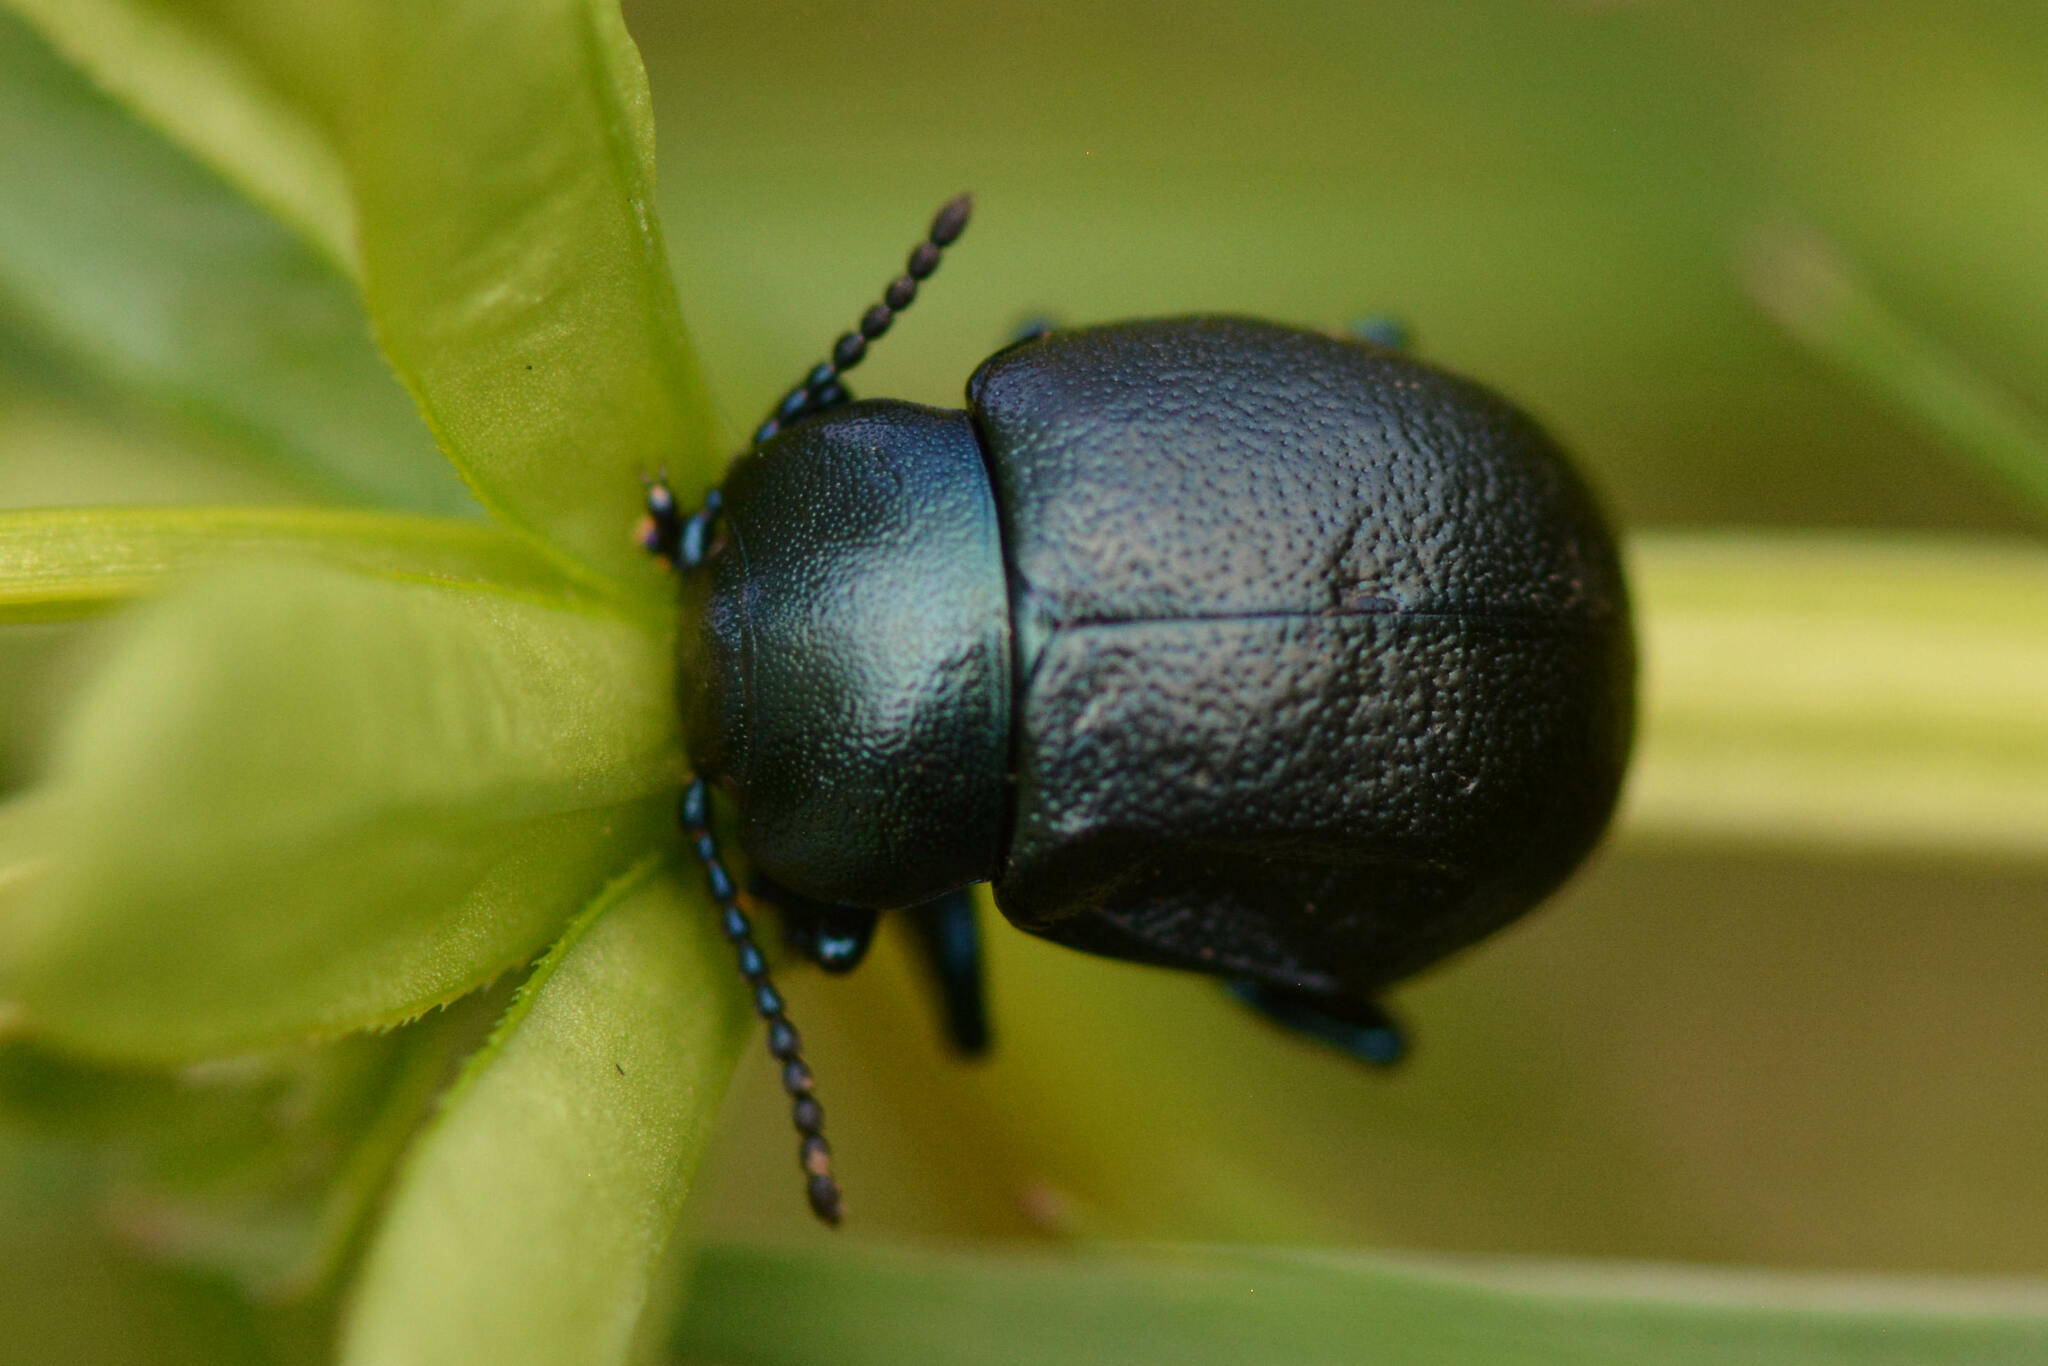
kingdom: Animalia
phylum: Arthropoda
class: Insecta
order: Coleoptera
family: Chrysomelidae
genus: Timarcha
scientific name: Timarcha goettingensis
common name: Small bloody-nosed beetle
